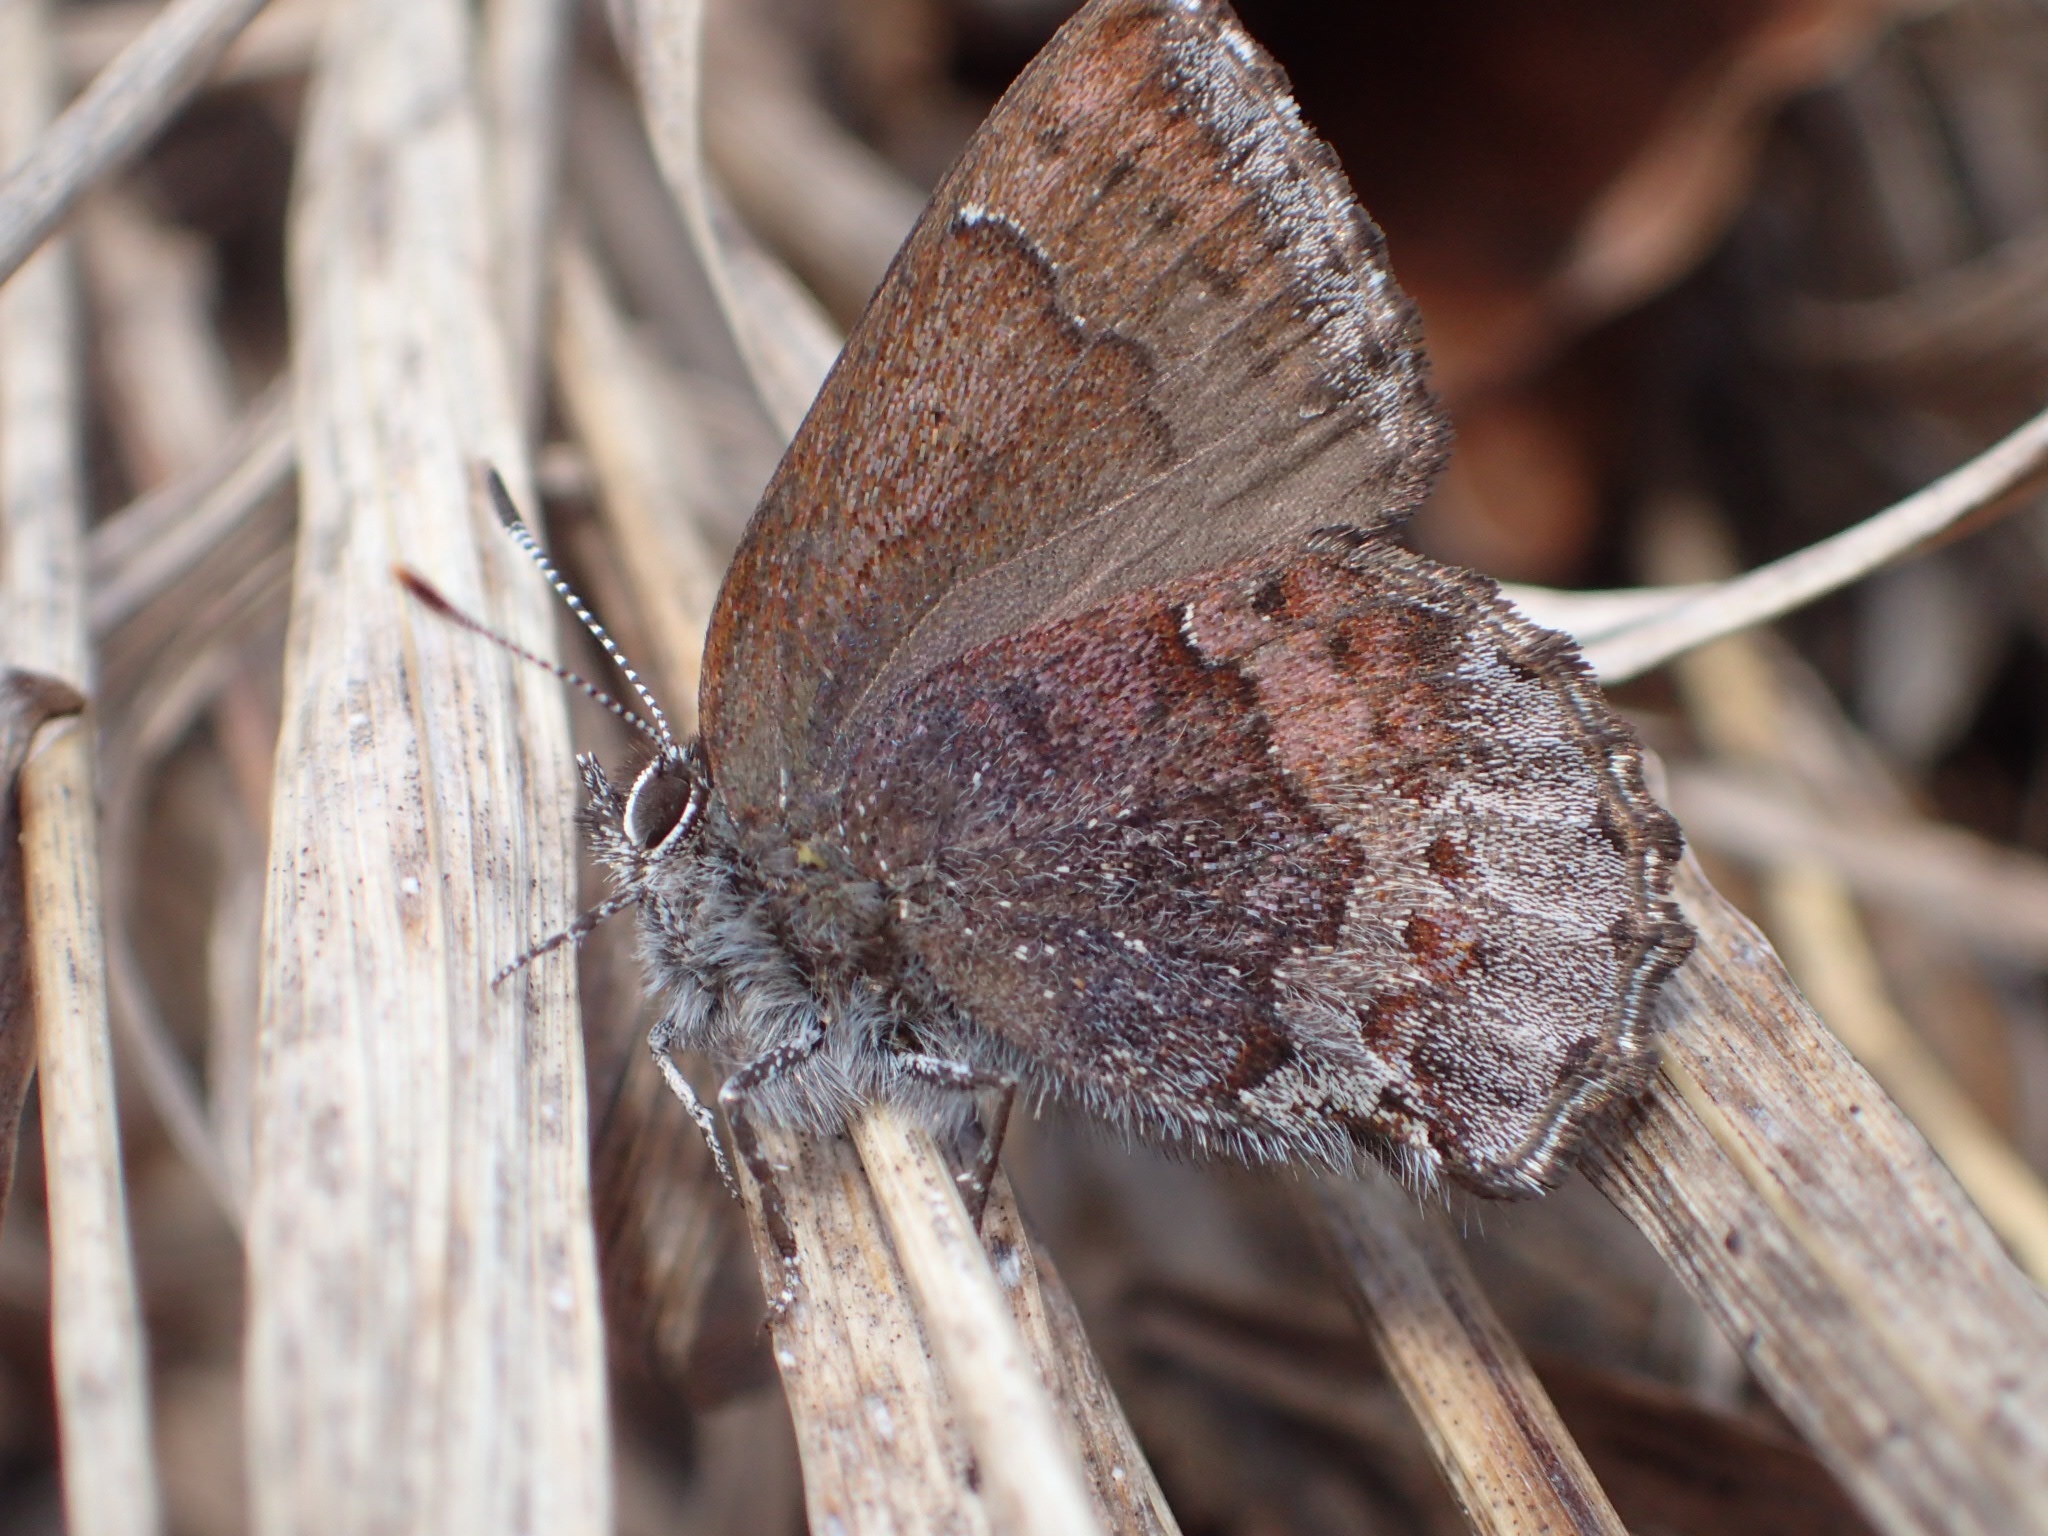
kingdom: Animalia
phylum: Arthropoda
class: Insecta
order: Lepidoptera
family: Lycaenidae
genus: Callophrys
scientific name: Callophrys polios
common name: Hoary elfin
